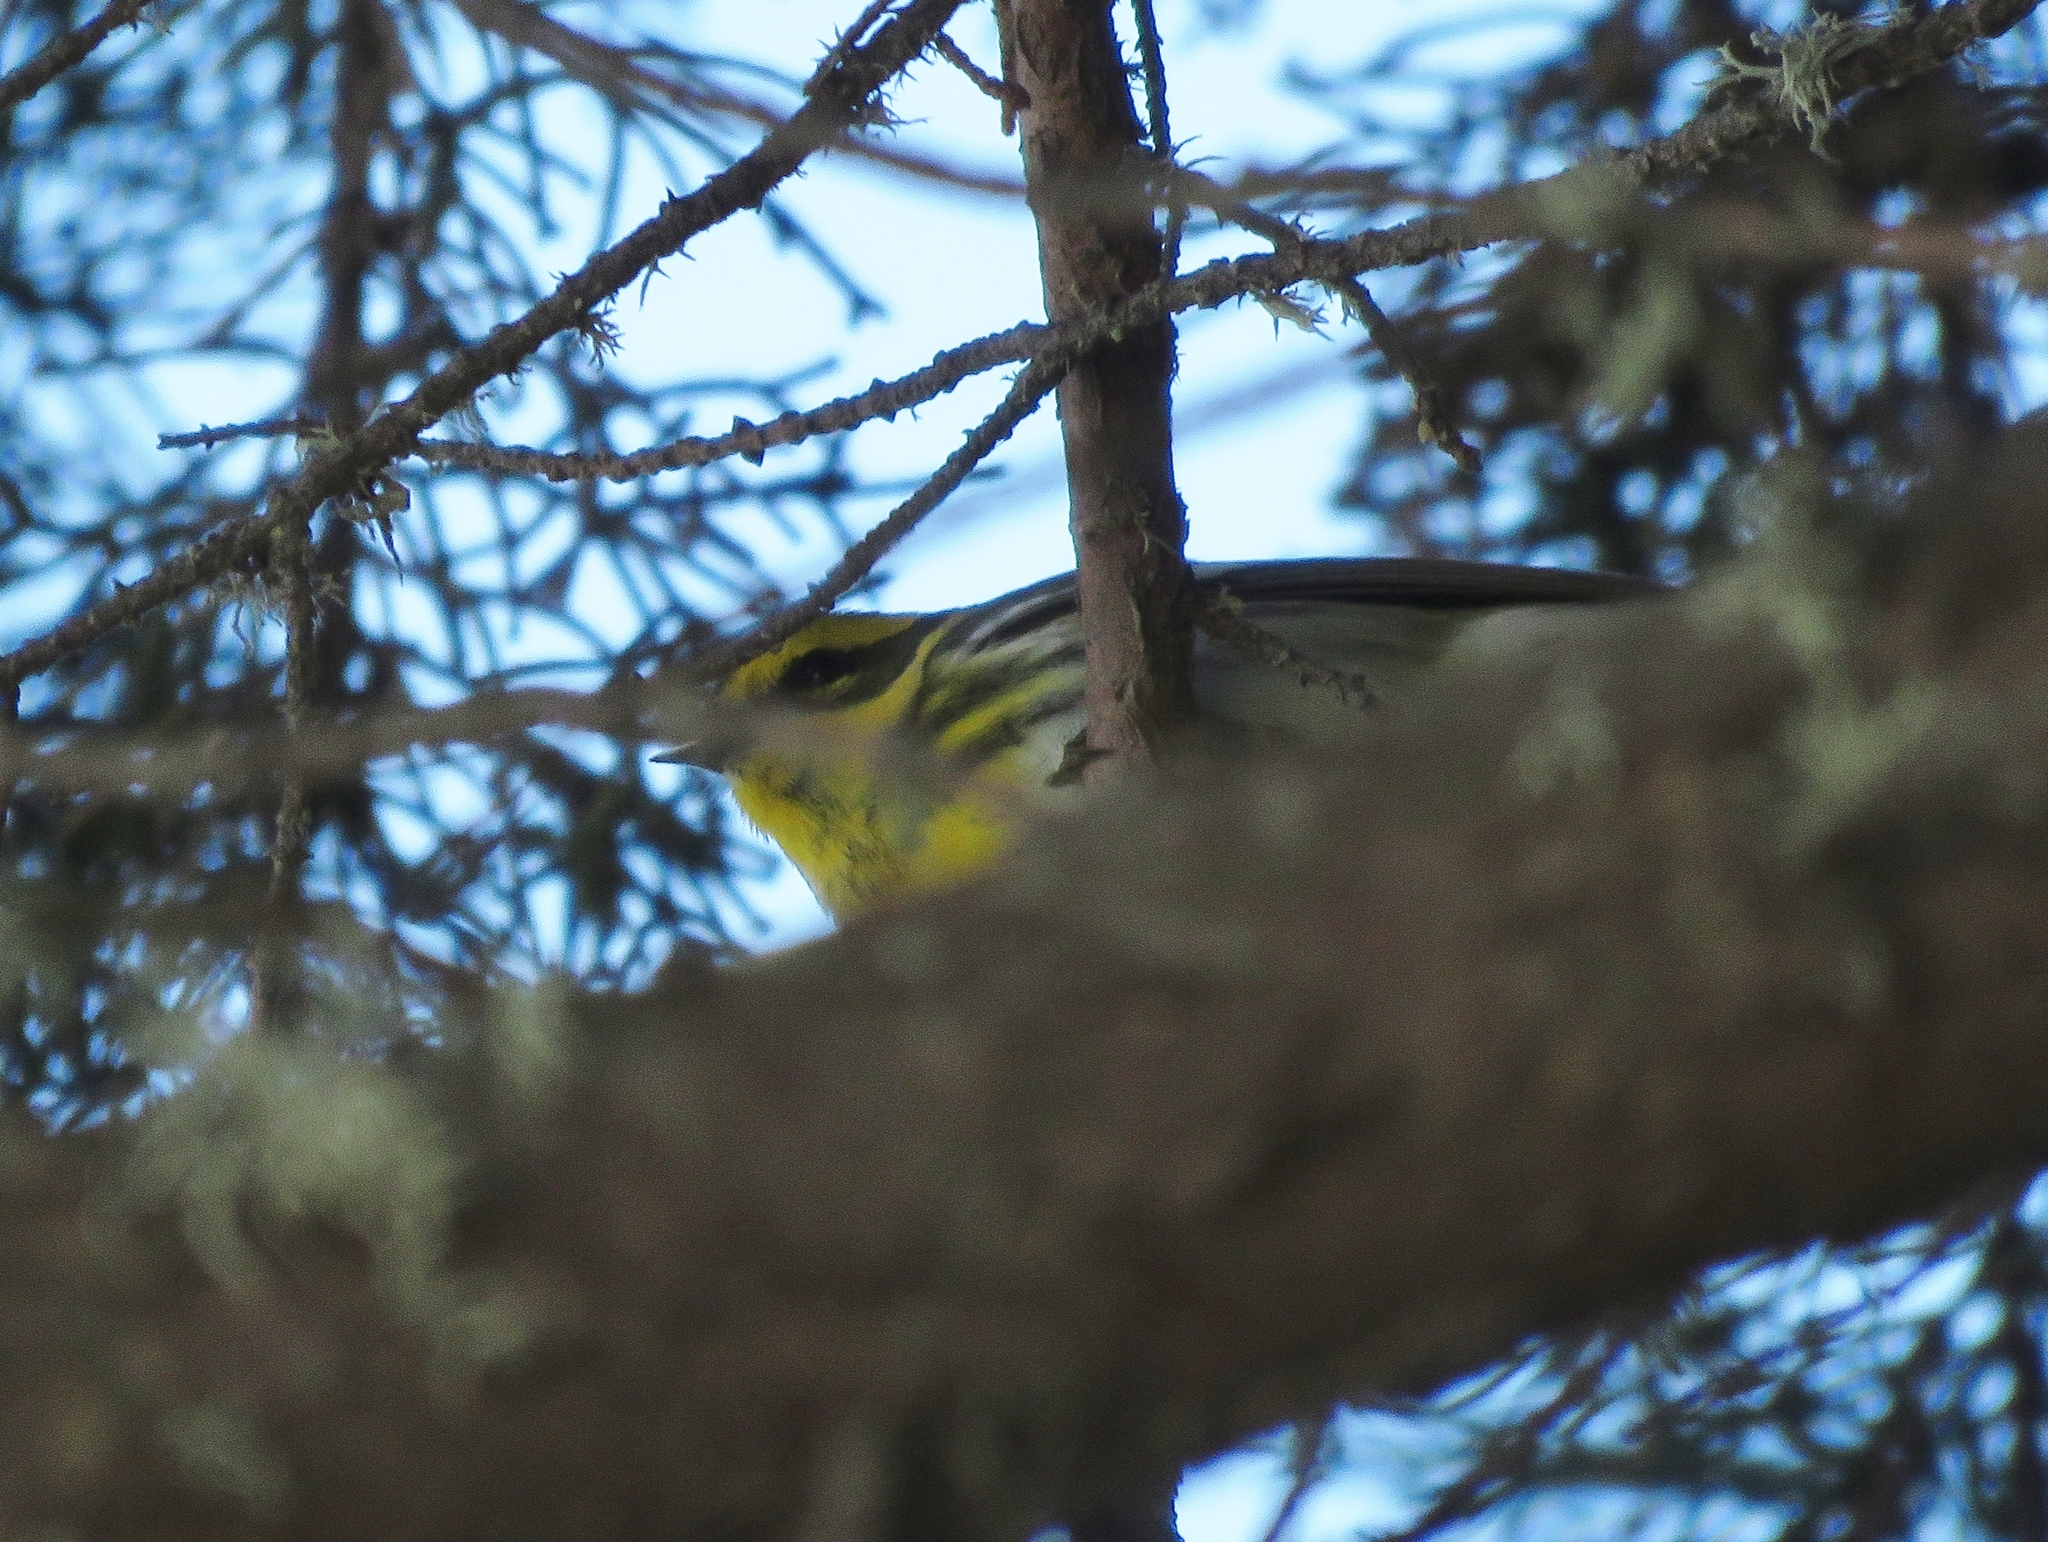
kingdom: Animalia
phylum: Chordata
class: Aves
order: Passeriformes
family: Parulidae
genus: Setophaga
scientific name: Setophaga townsendi
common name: Townsend's warbler
